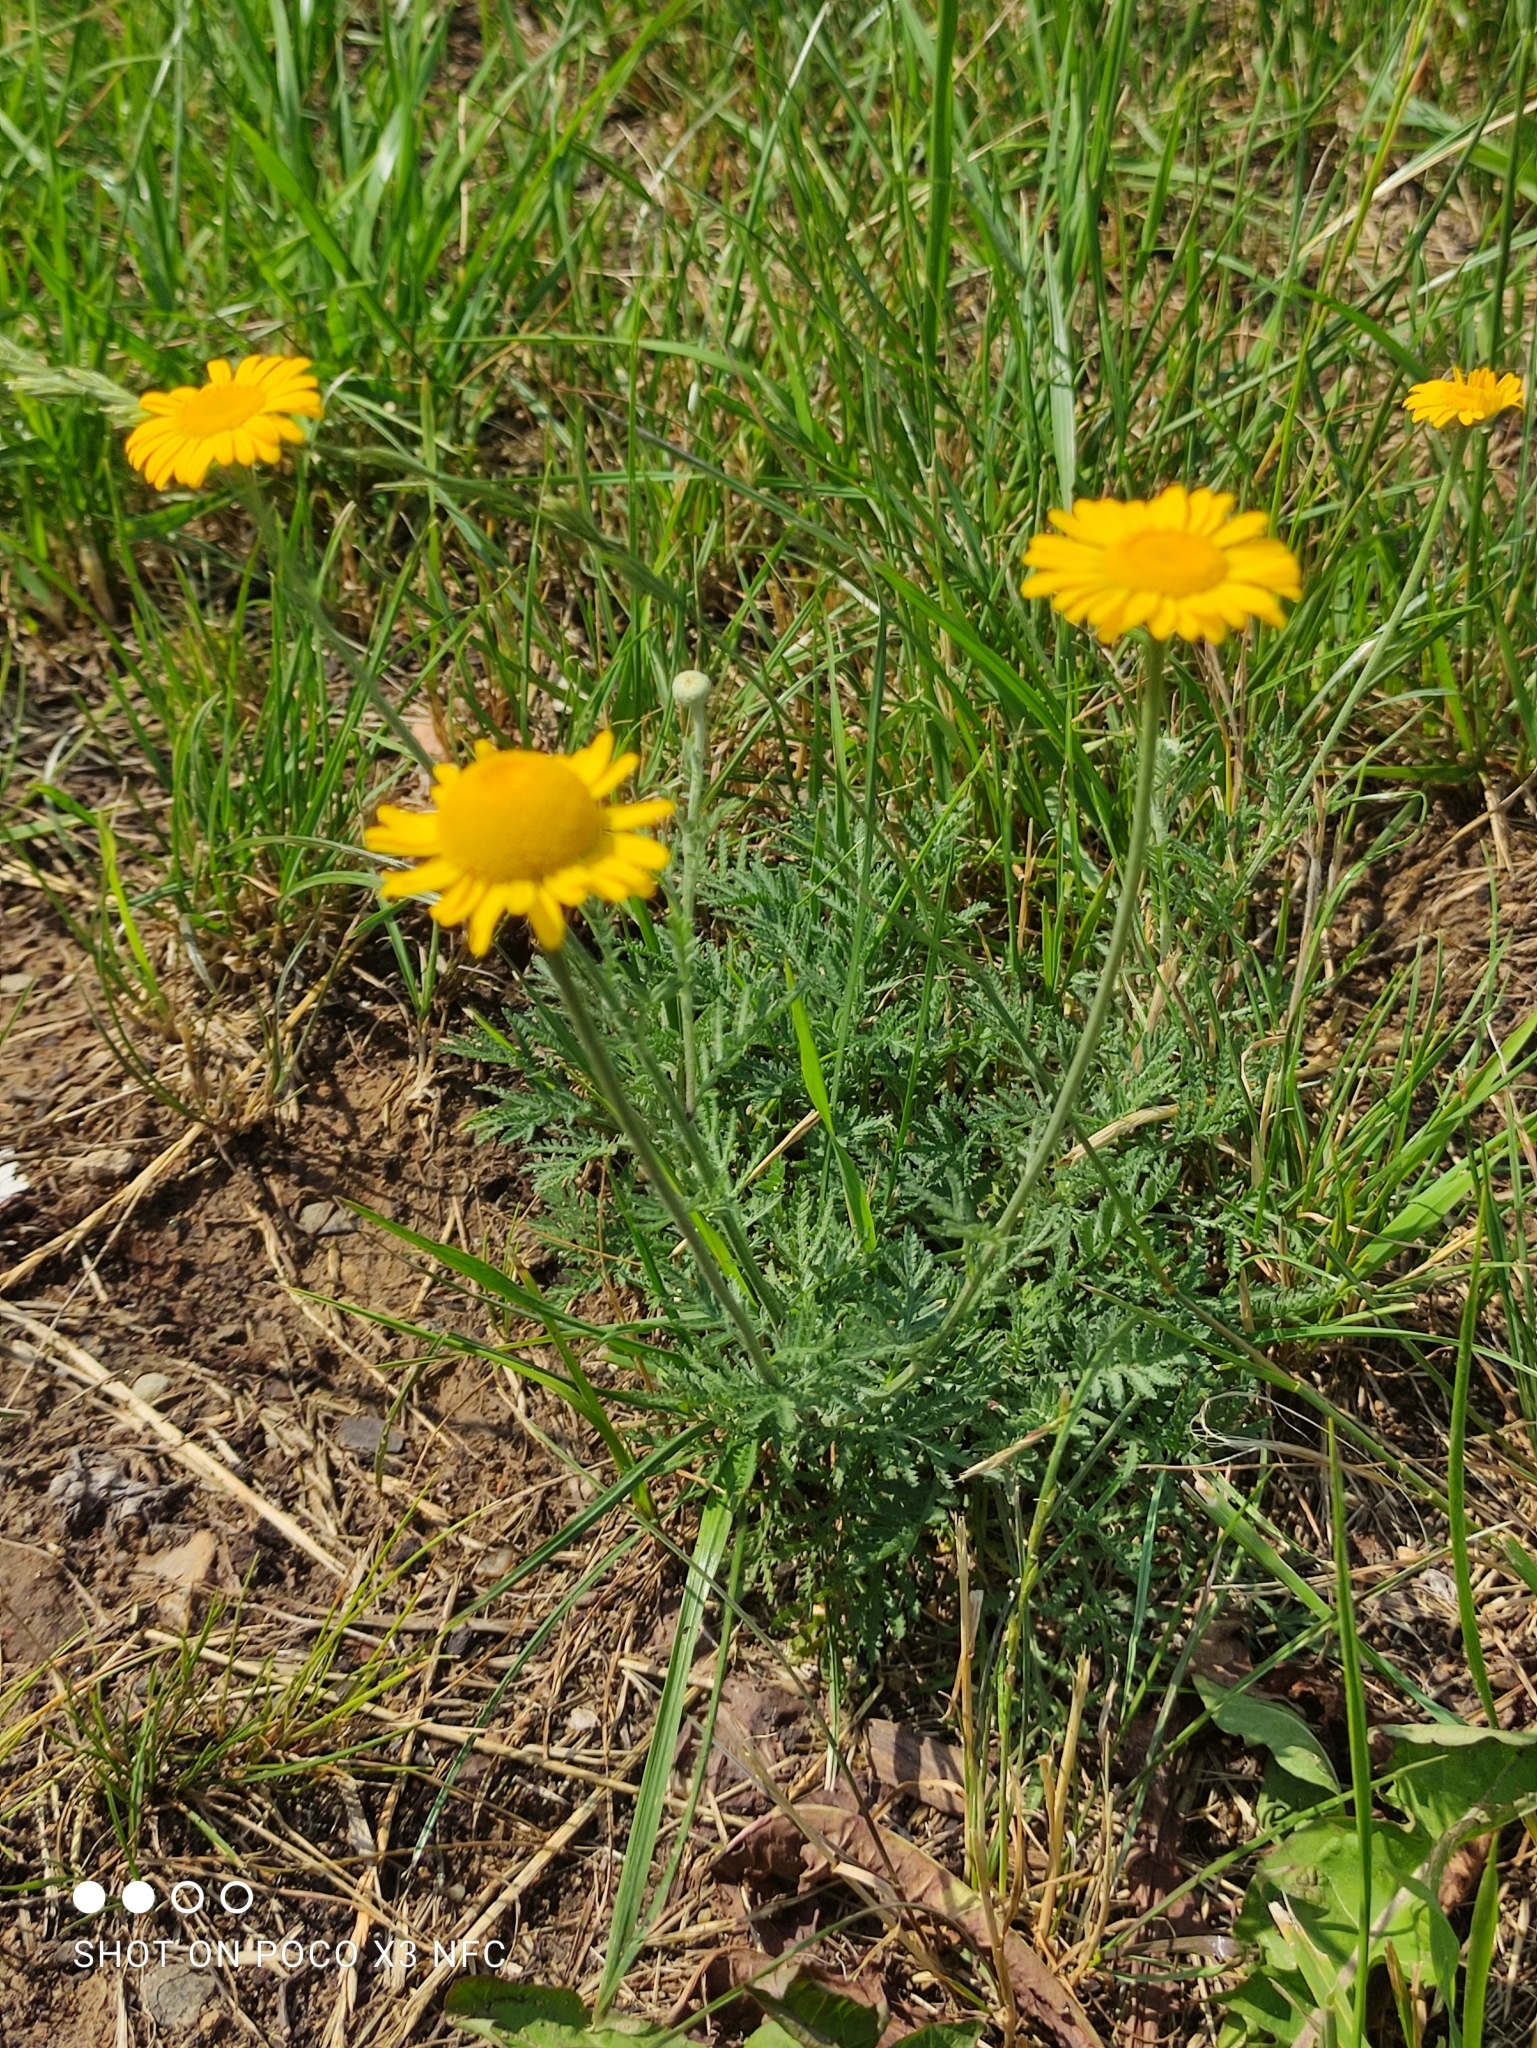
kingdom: Plantae
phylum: Tracheophyta
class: Magnoliopsida
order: Asterales
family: Asteraceae
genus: Cota
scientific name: Cota tinctoria
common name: Golden chamomile
